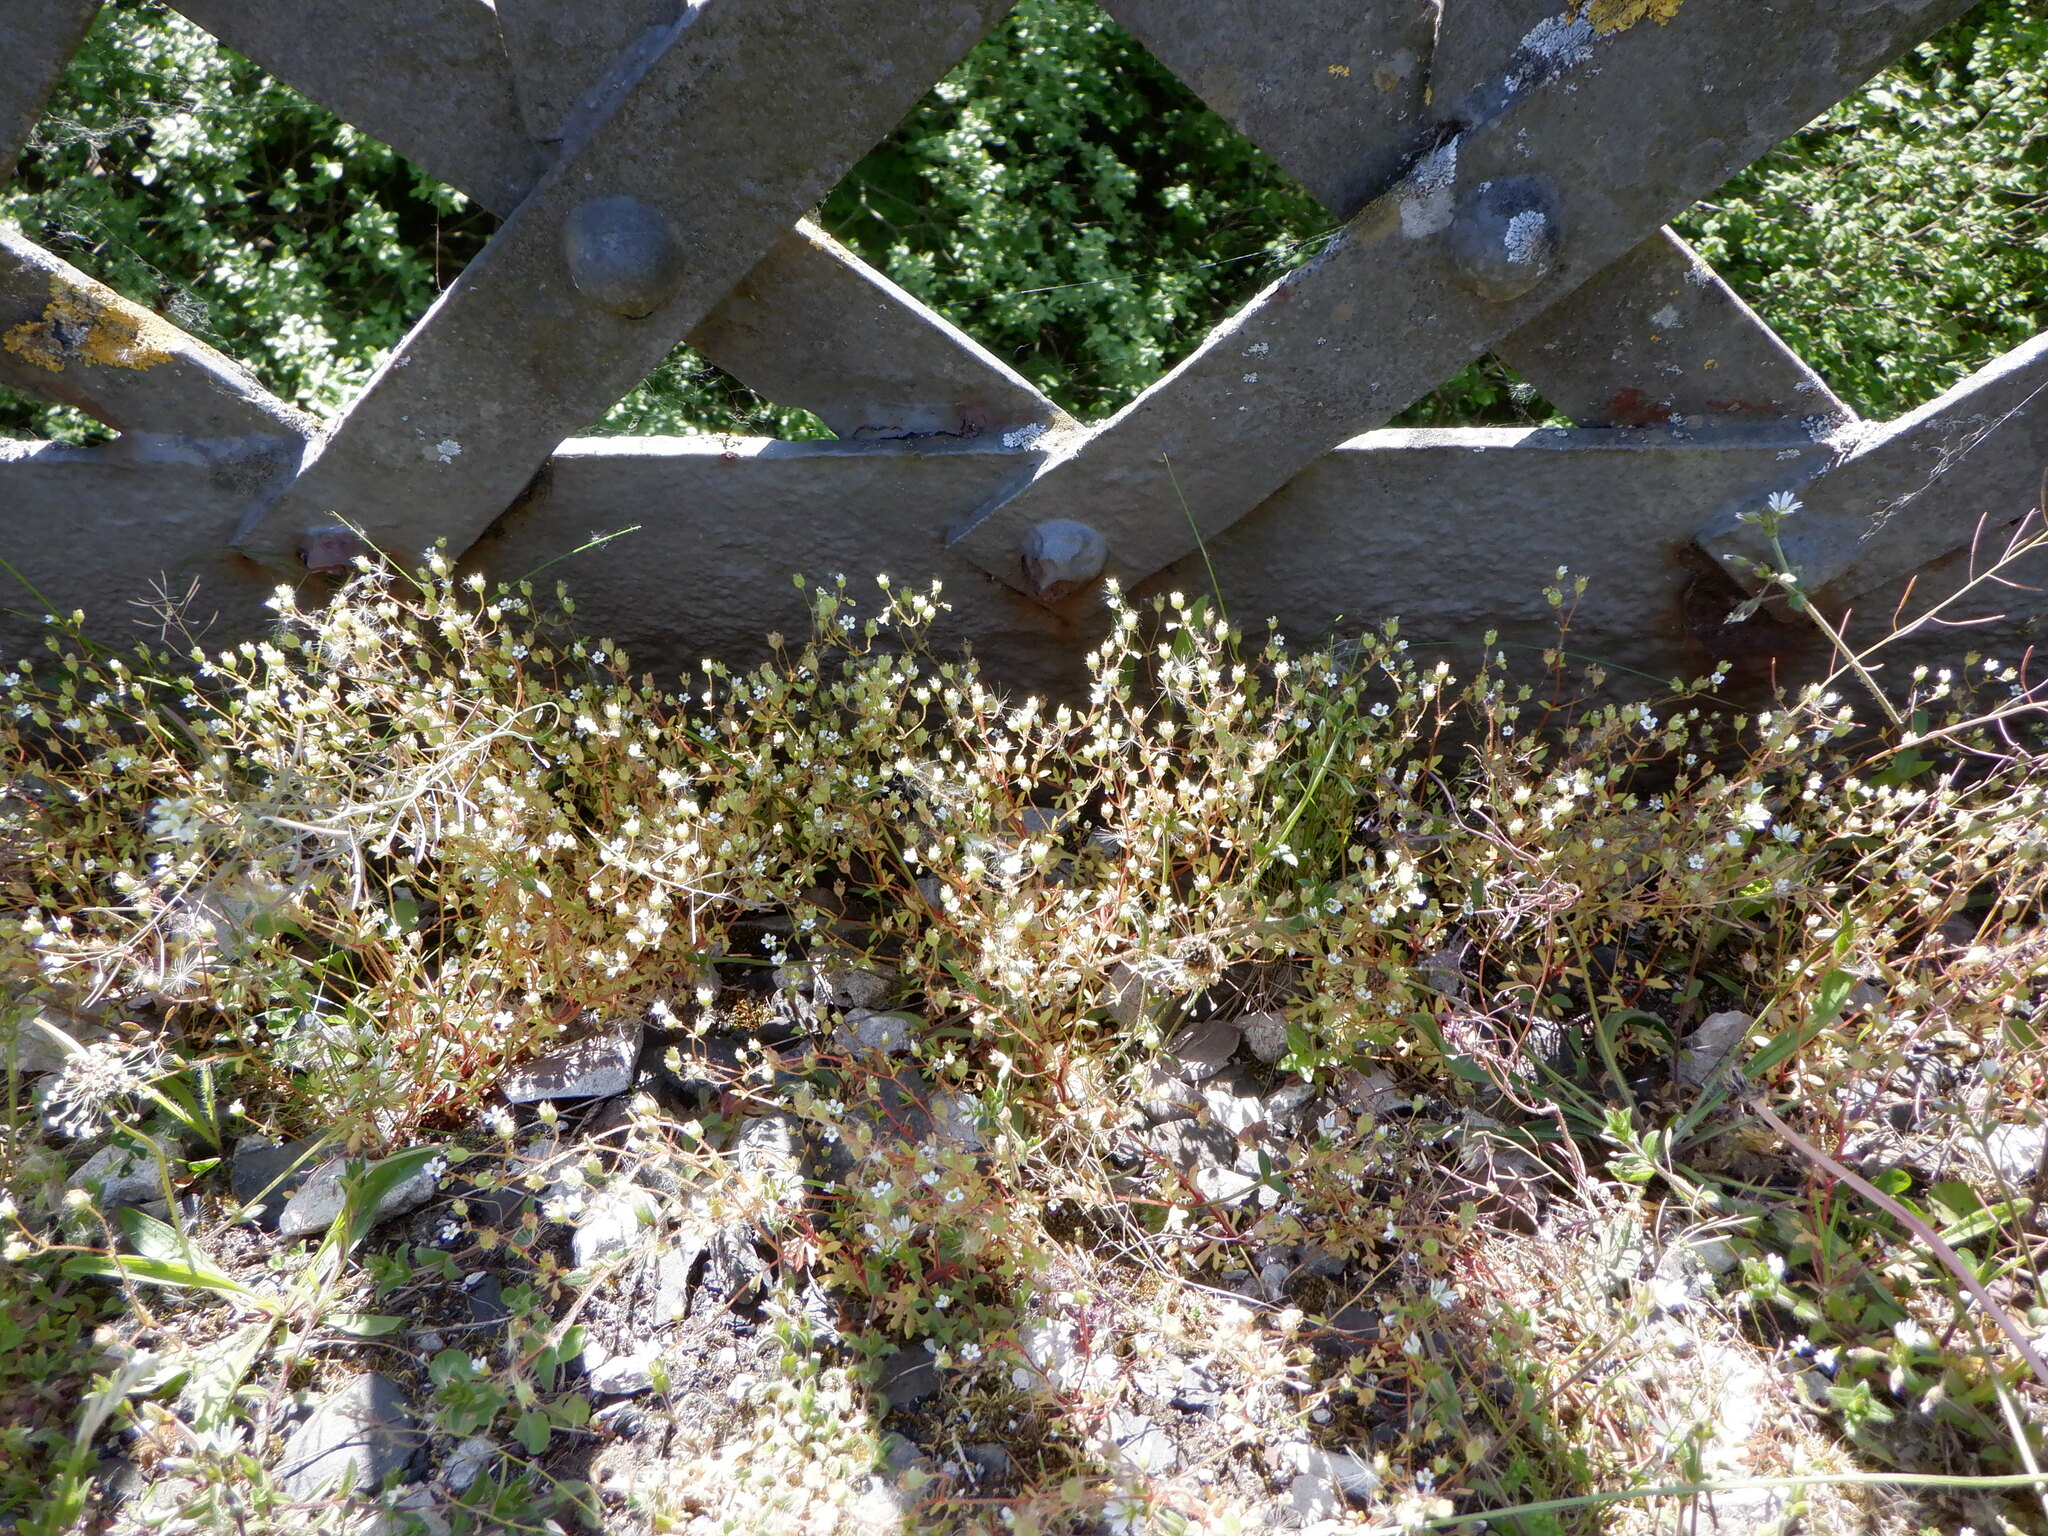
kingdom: Plantae
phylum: Tracheophyta
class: Magnoliopsida
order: Saxifragales
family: Saxifragaceae
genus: Saxifraga
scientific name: Saxifraga tridactylites
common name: Rue-leaved saxifrage
